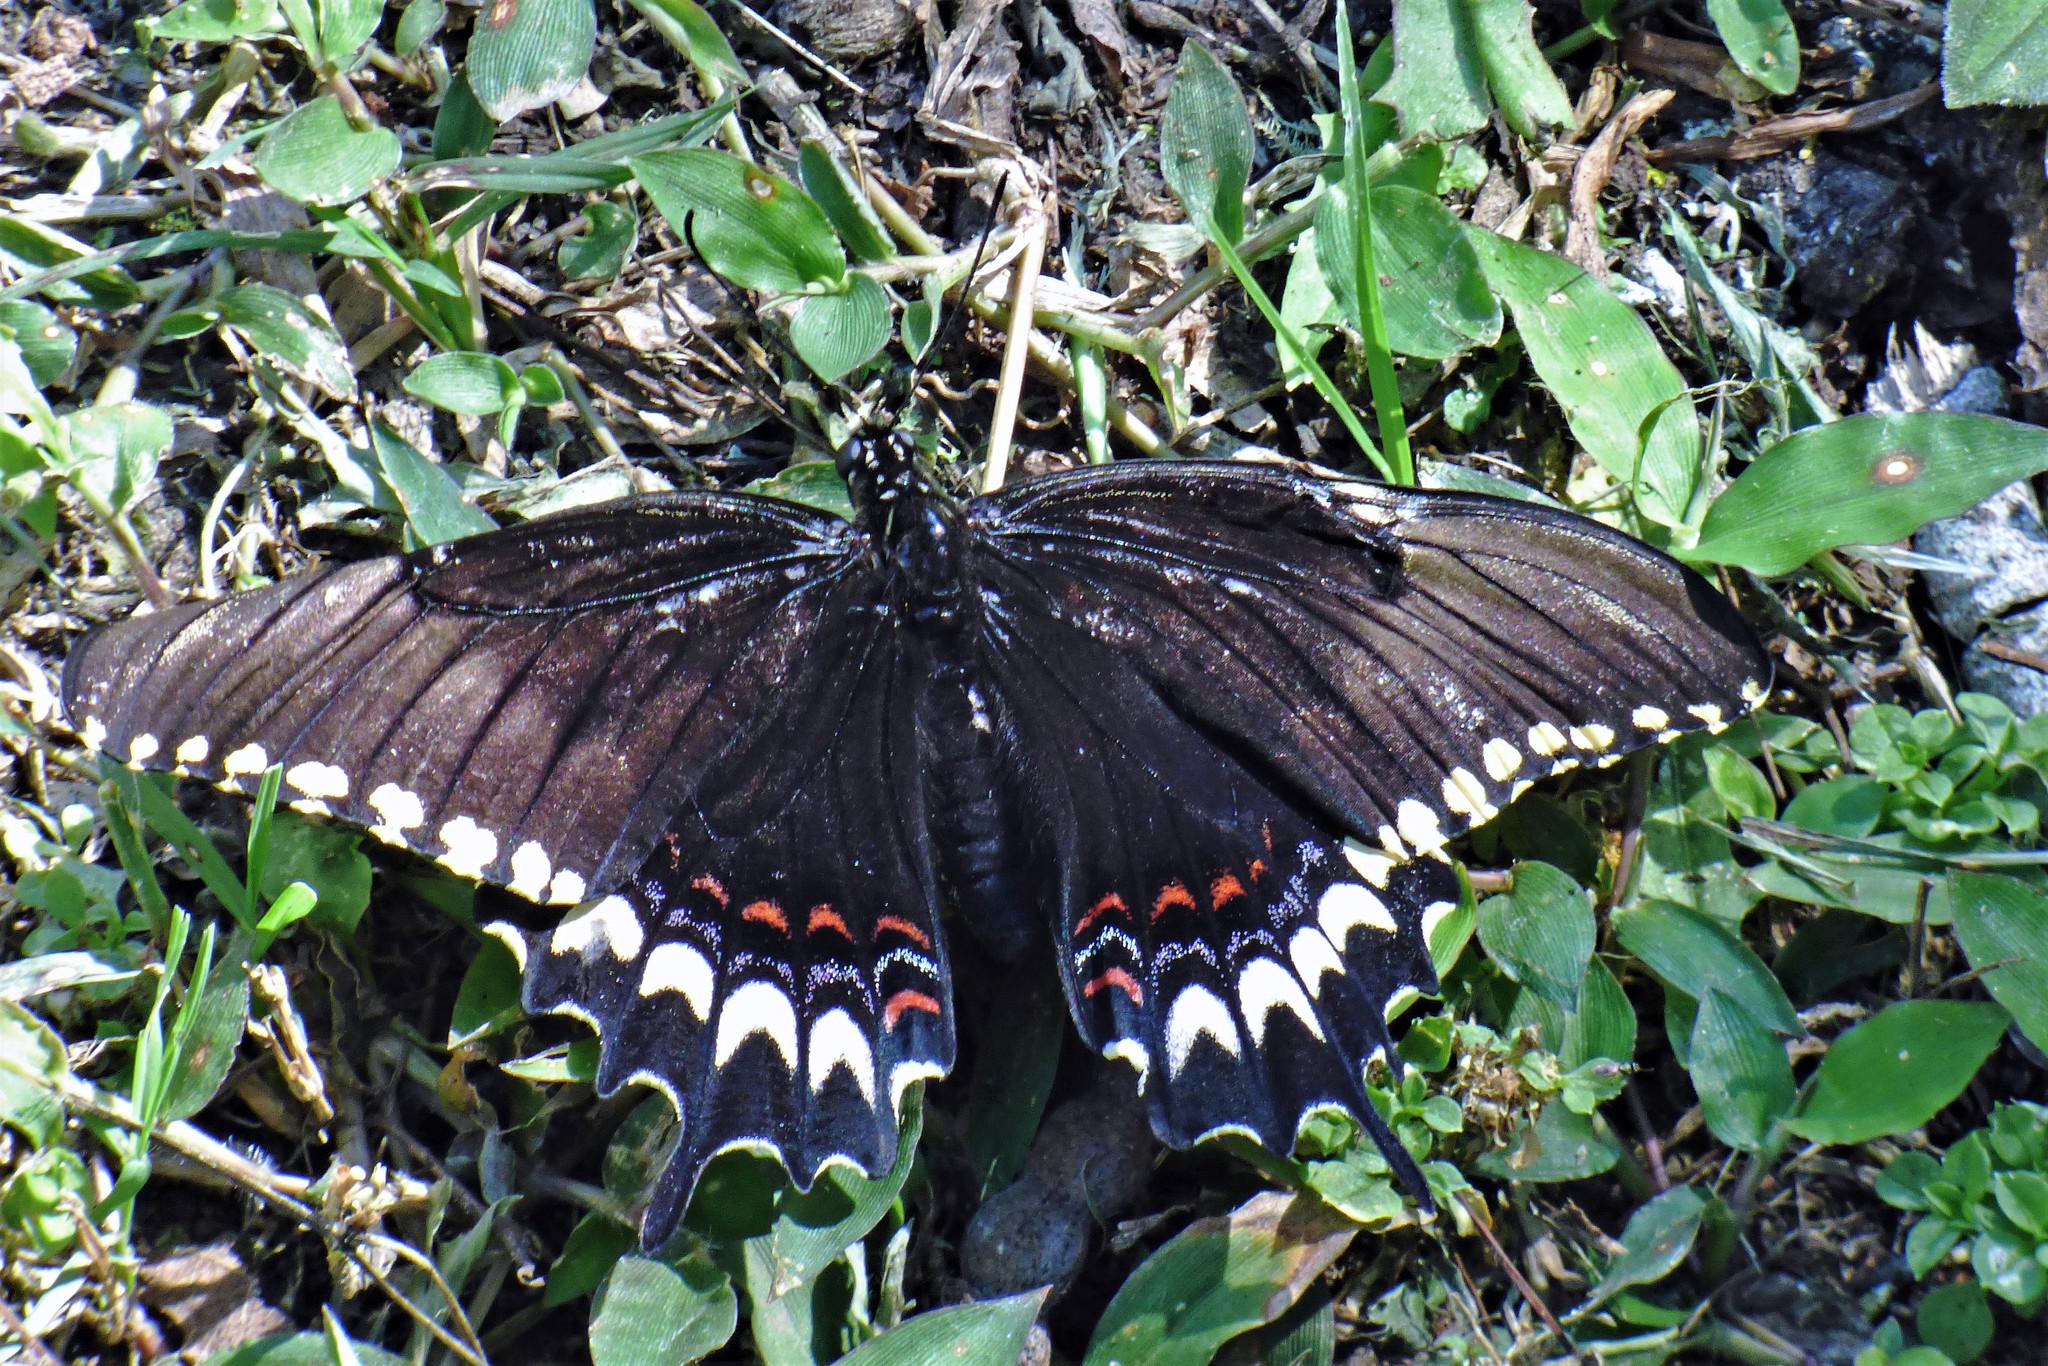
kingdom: Animalia
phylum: Arthropoda
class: Insecta
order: Lepidoptera
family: Papilionidae
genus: Papilio
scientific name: Papilio astyalus
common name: Astyalus swallowtail
